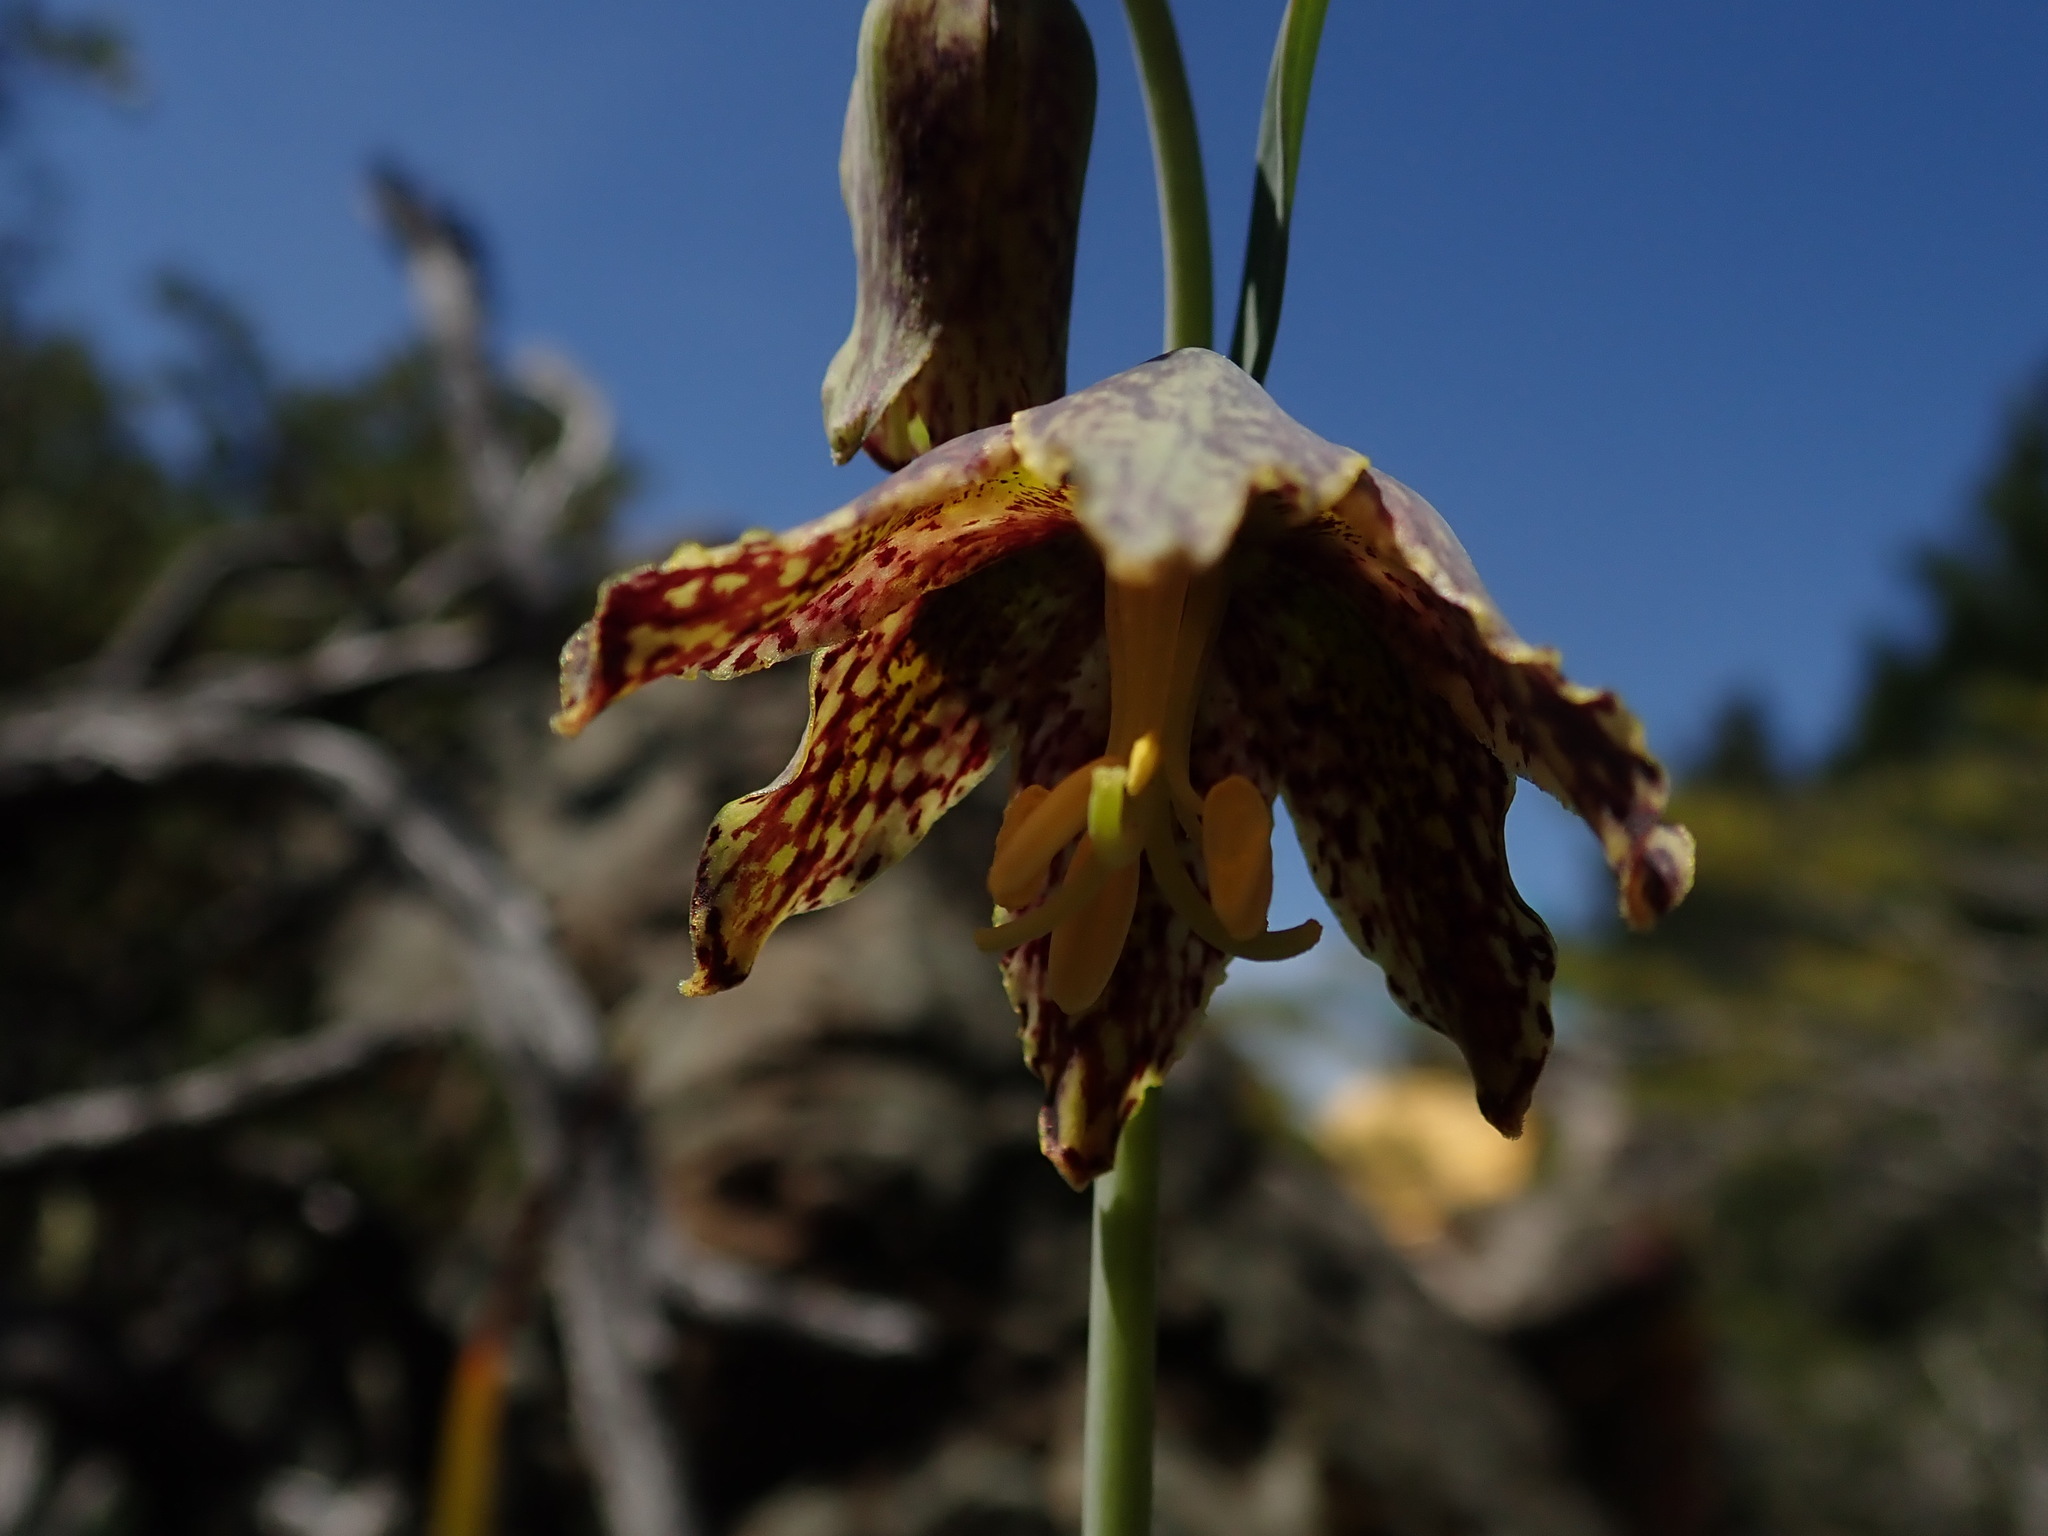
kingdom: Plantae
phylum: Tracheophyta
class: Liliopsida
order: Liliales
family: Liliaceae
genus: Fritillaria
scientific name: Fritillaria affinis
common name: Ojai fritillary
